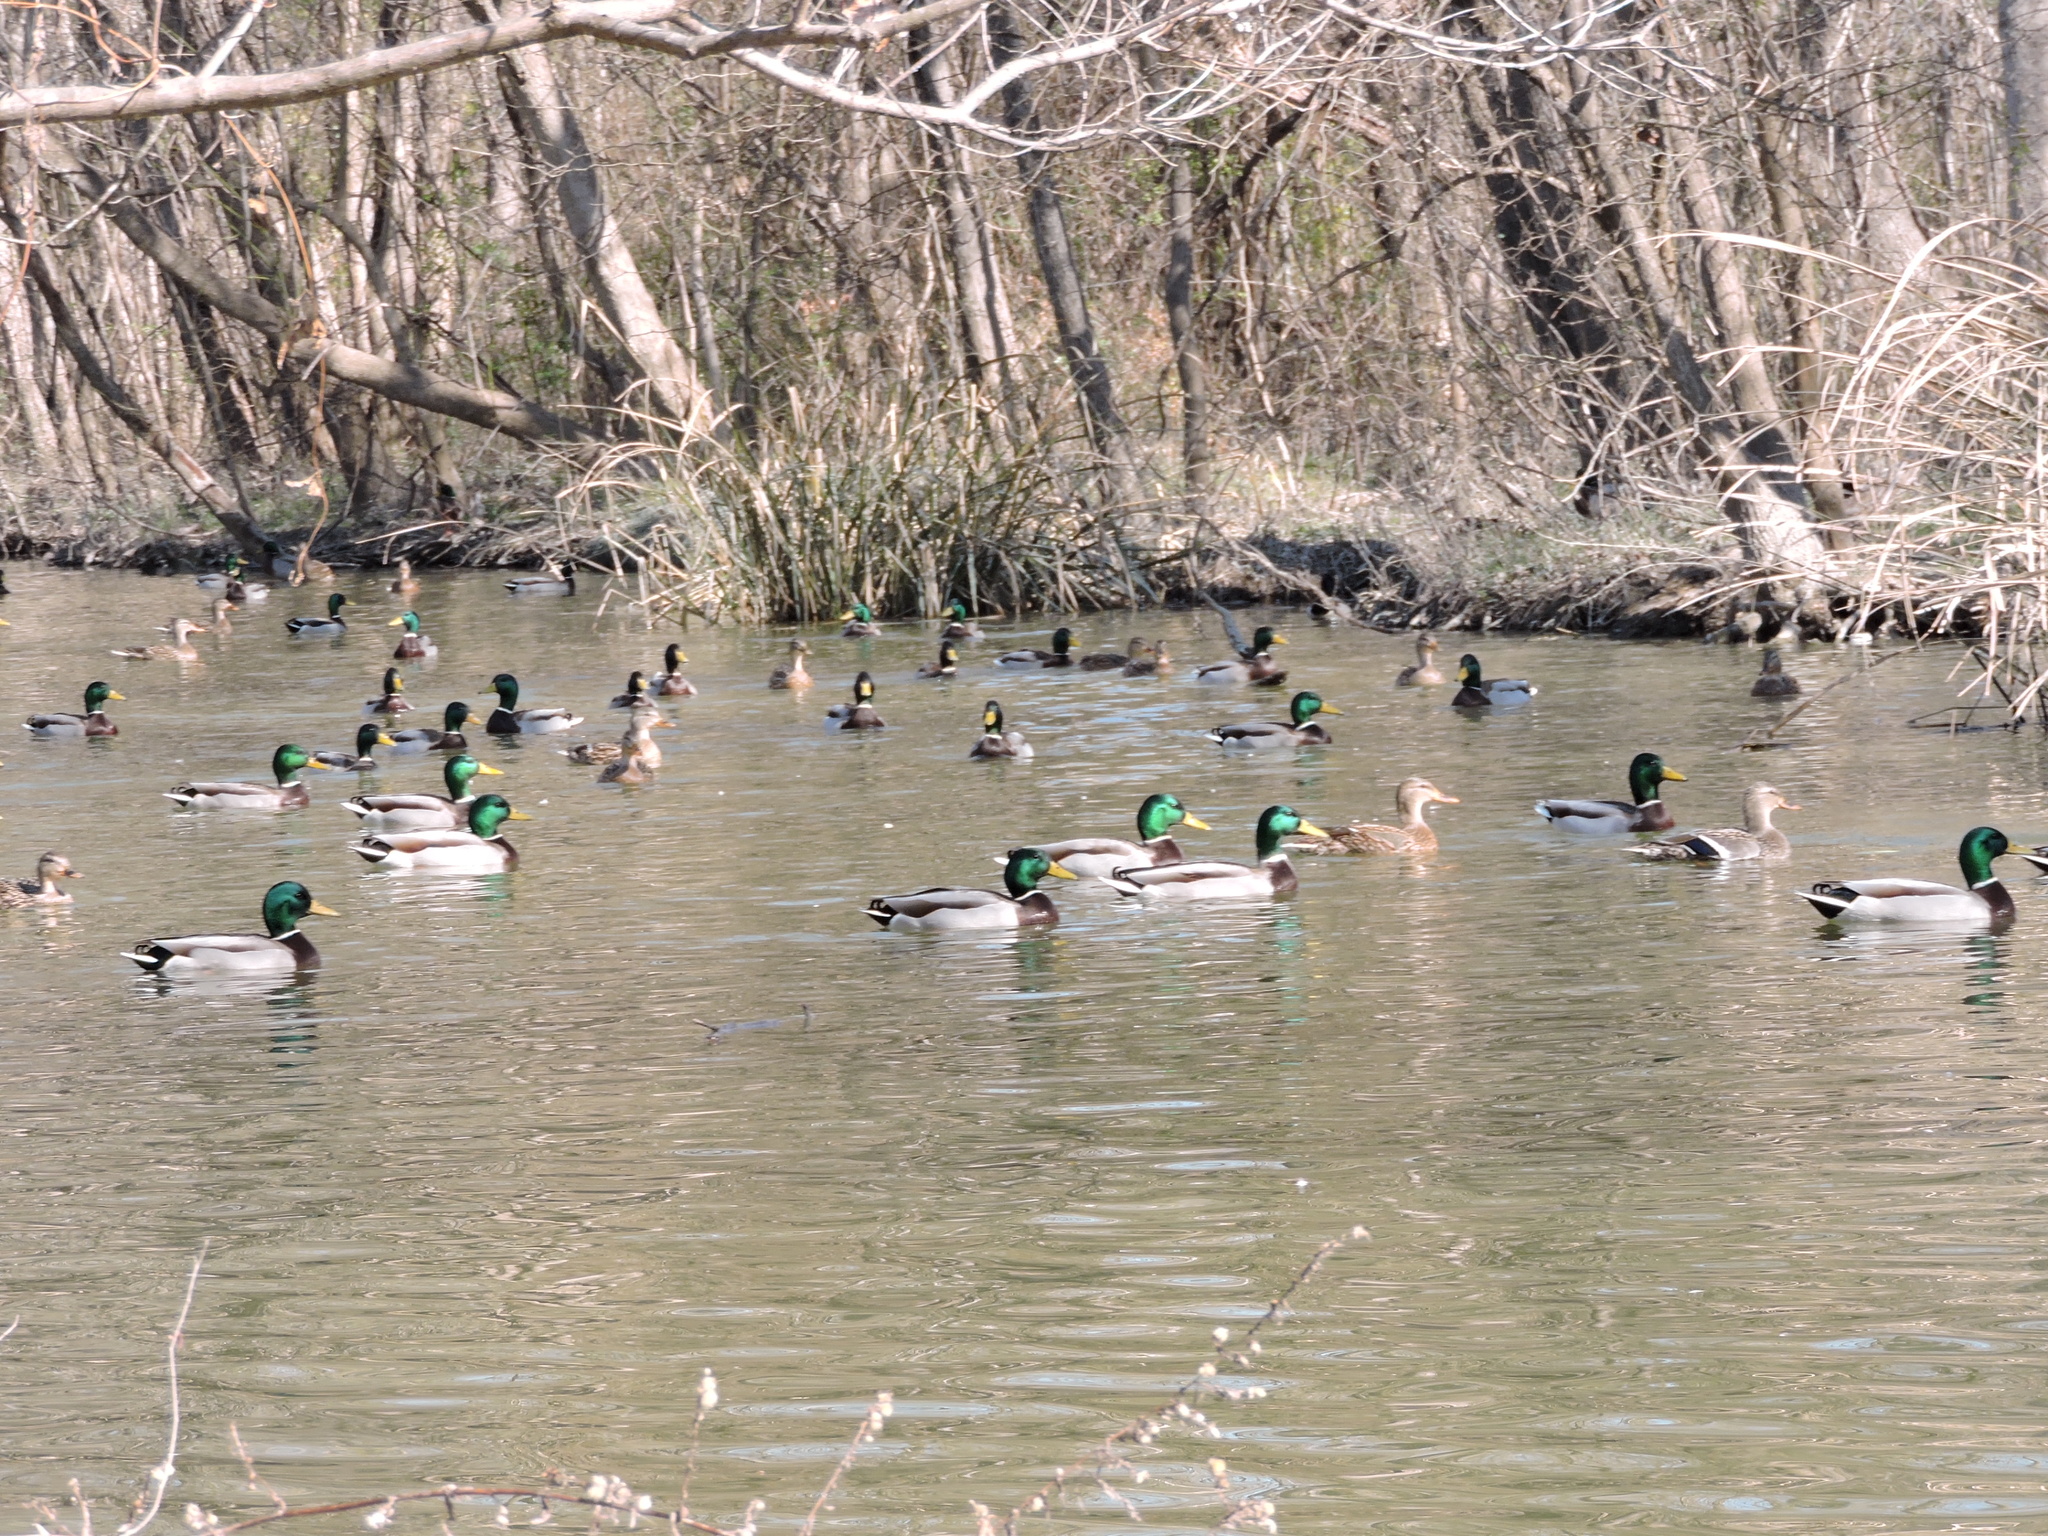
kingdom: Animalia
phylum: Chordata
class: Aves
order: Anseriformes
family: Anatidae
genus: Anas
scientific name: Anas platyrhynchos
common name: Mallard
